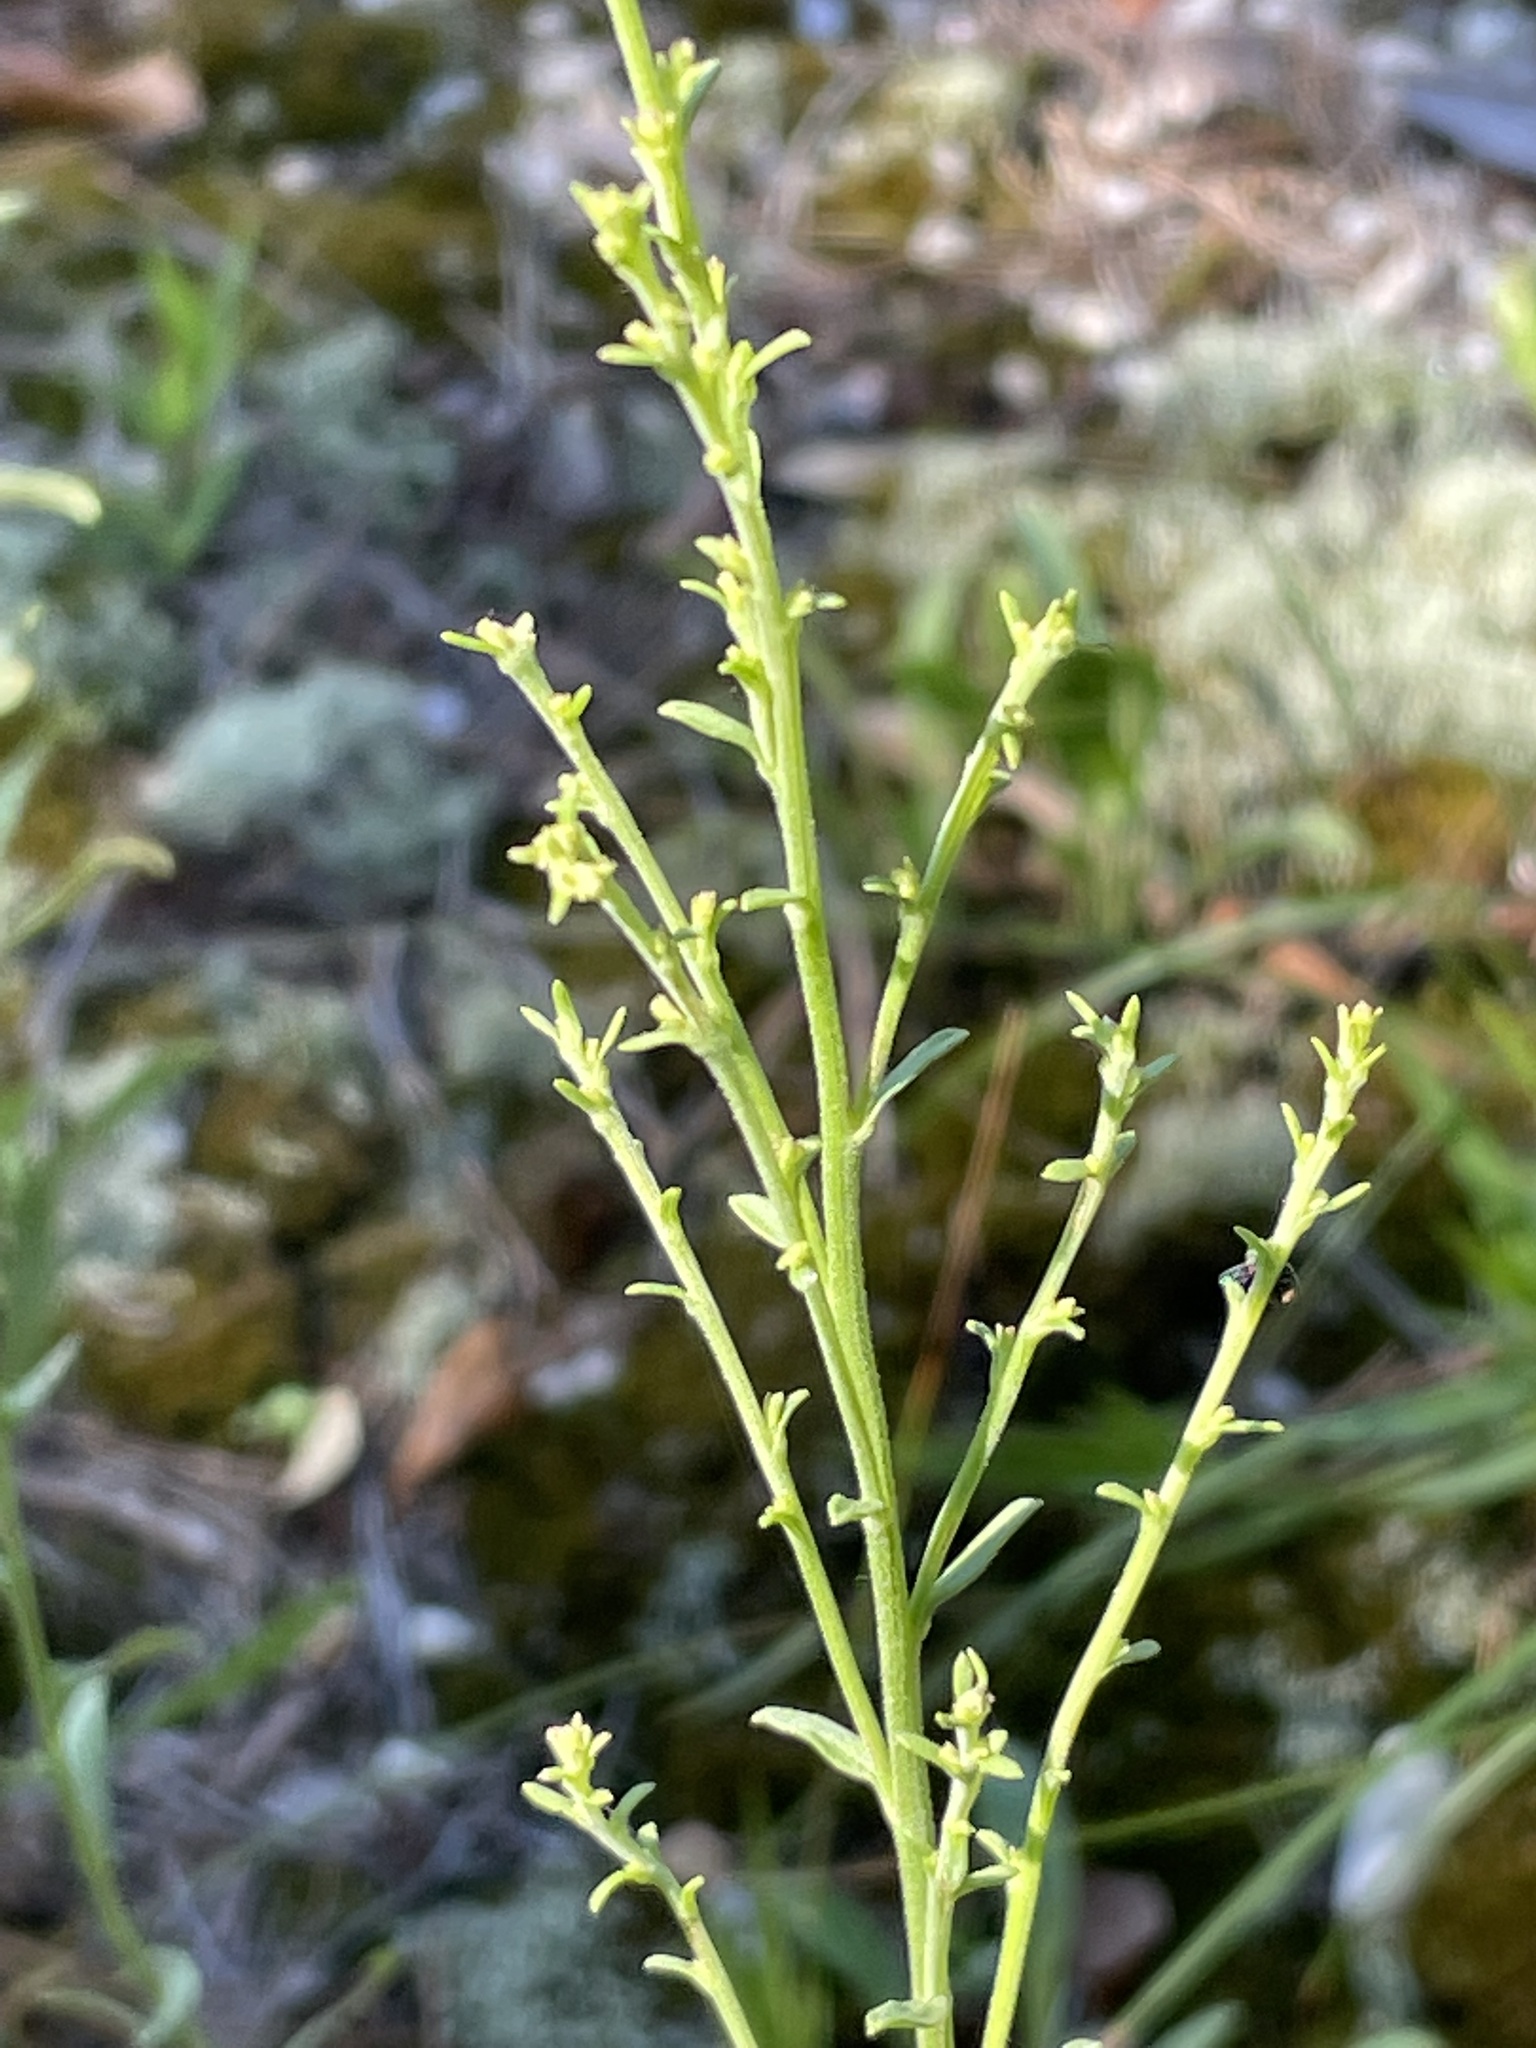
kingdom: Plantae
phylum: Tracheophyta
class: Magnoliopsida
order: Asterales
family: Asteraceae
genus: Solidago
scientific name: Solidago nemoralis
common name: Grey goldenrod
